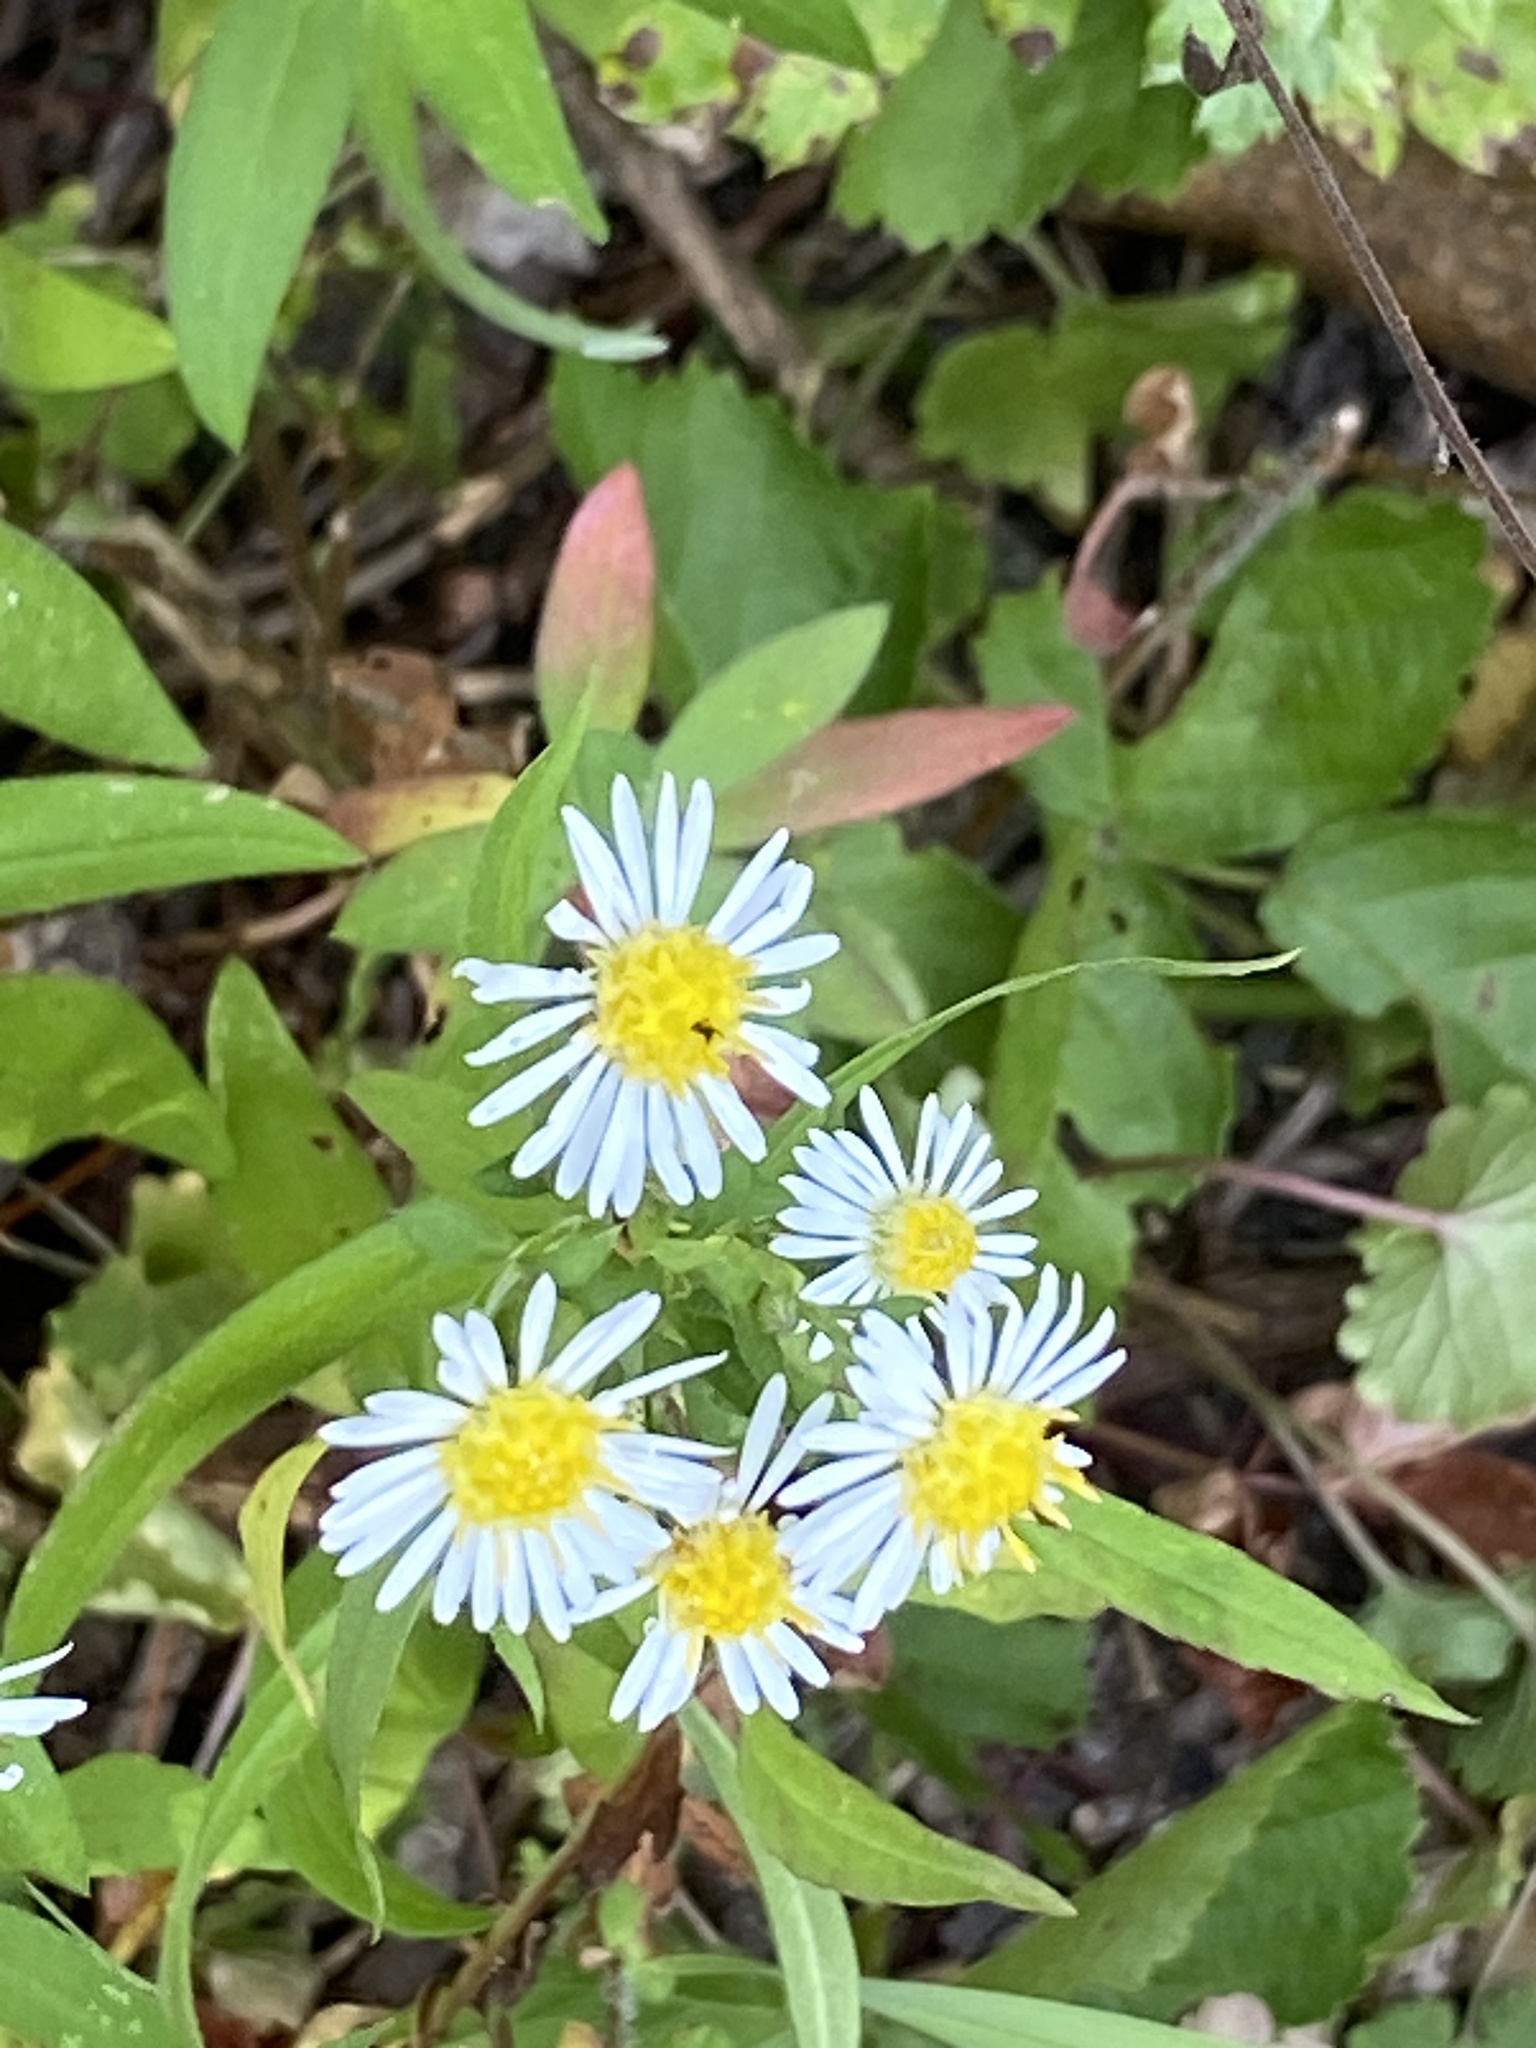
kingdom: Plantae
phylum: Tracheophyta
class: Magnoliopsida
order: Asterales
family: Asteraceae
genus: Symphyotrichum
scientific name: Symphyotrichum lanceolatum
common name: Panicled aster
